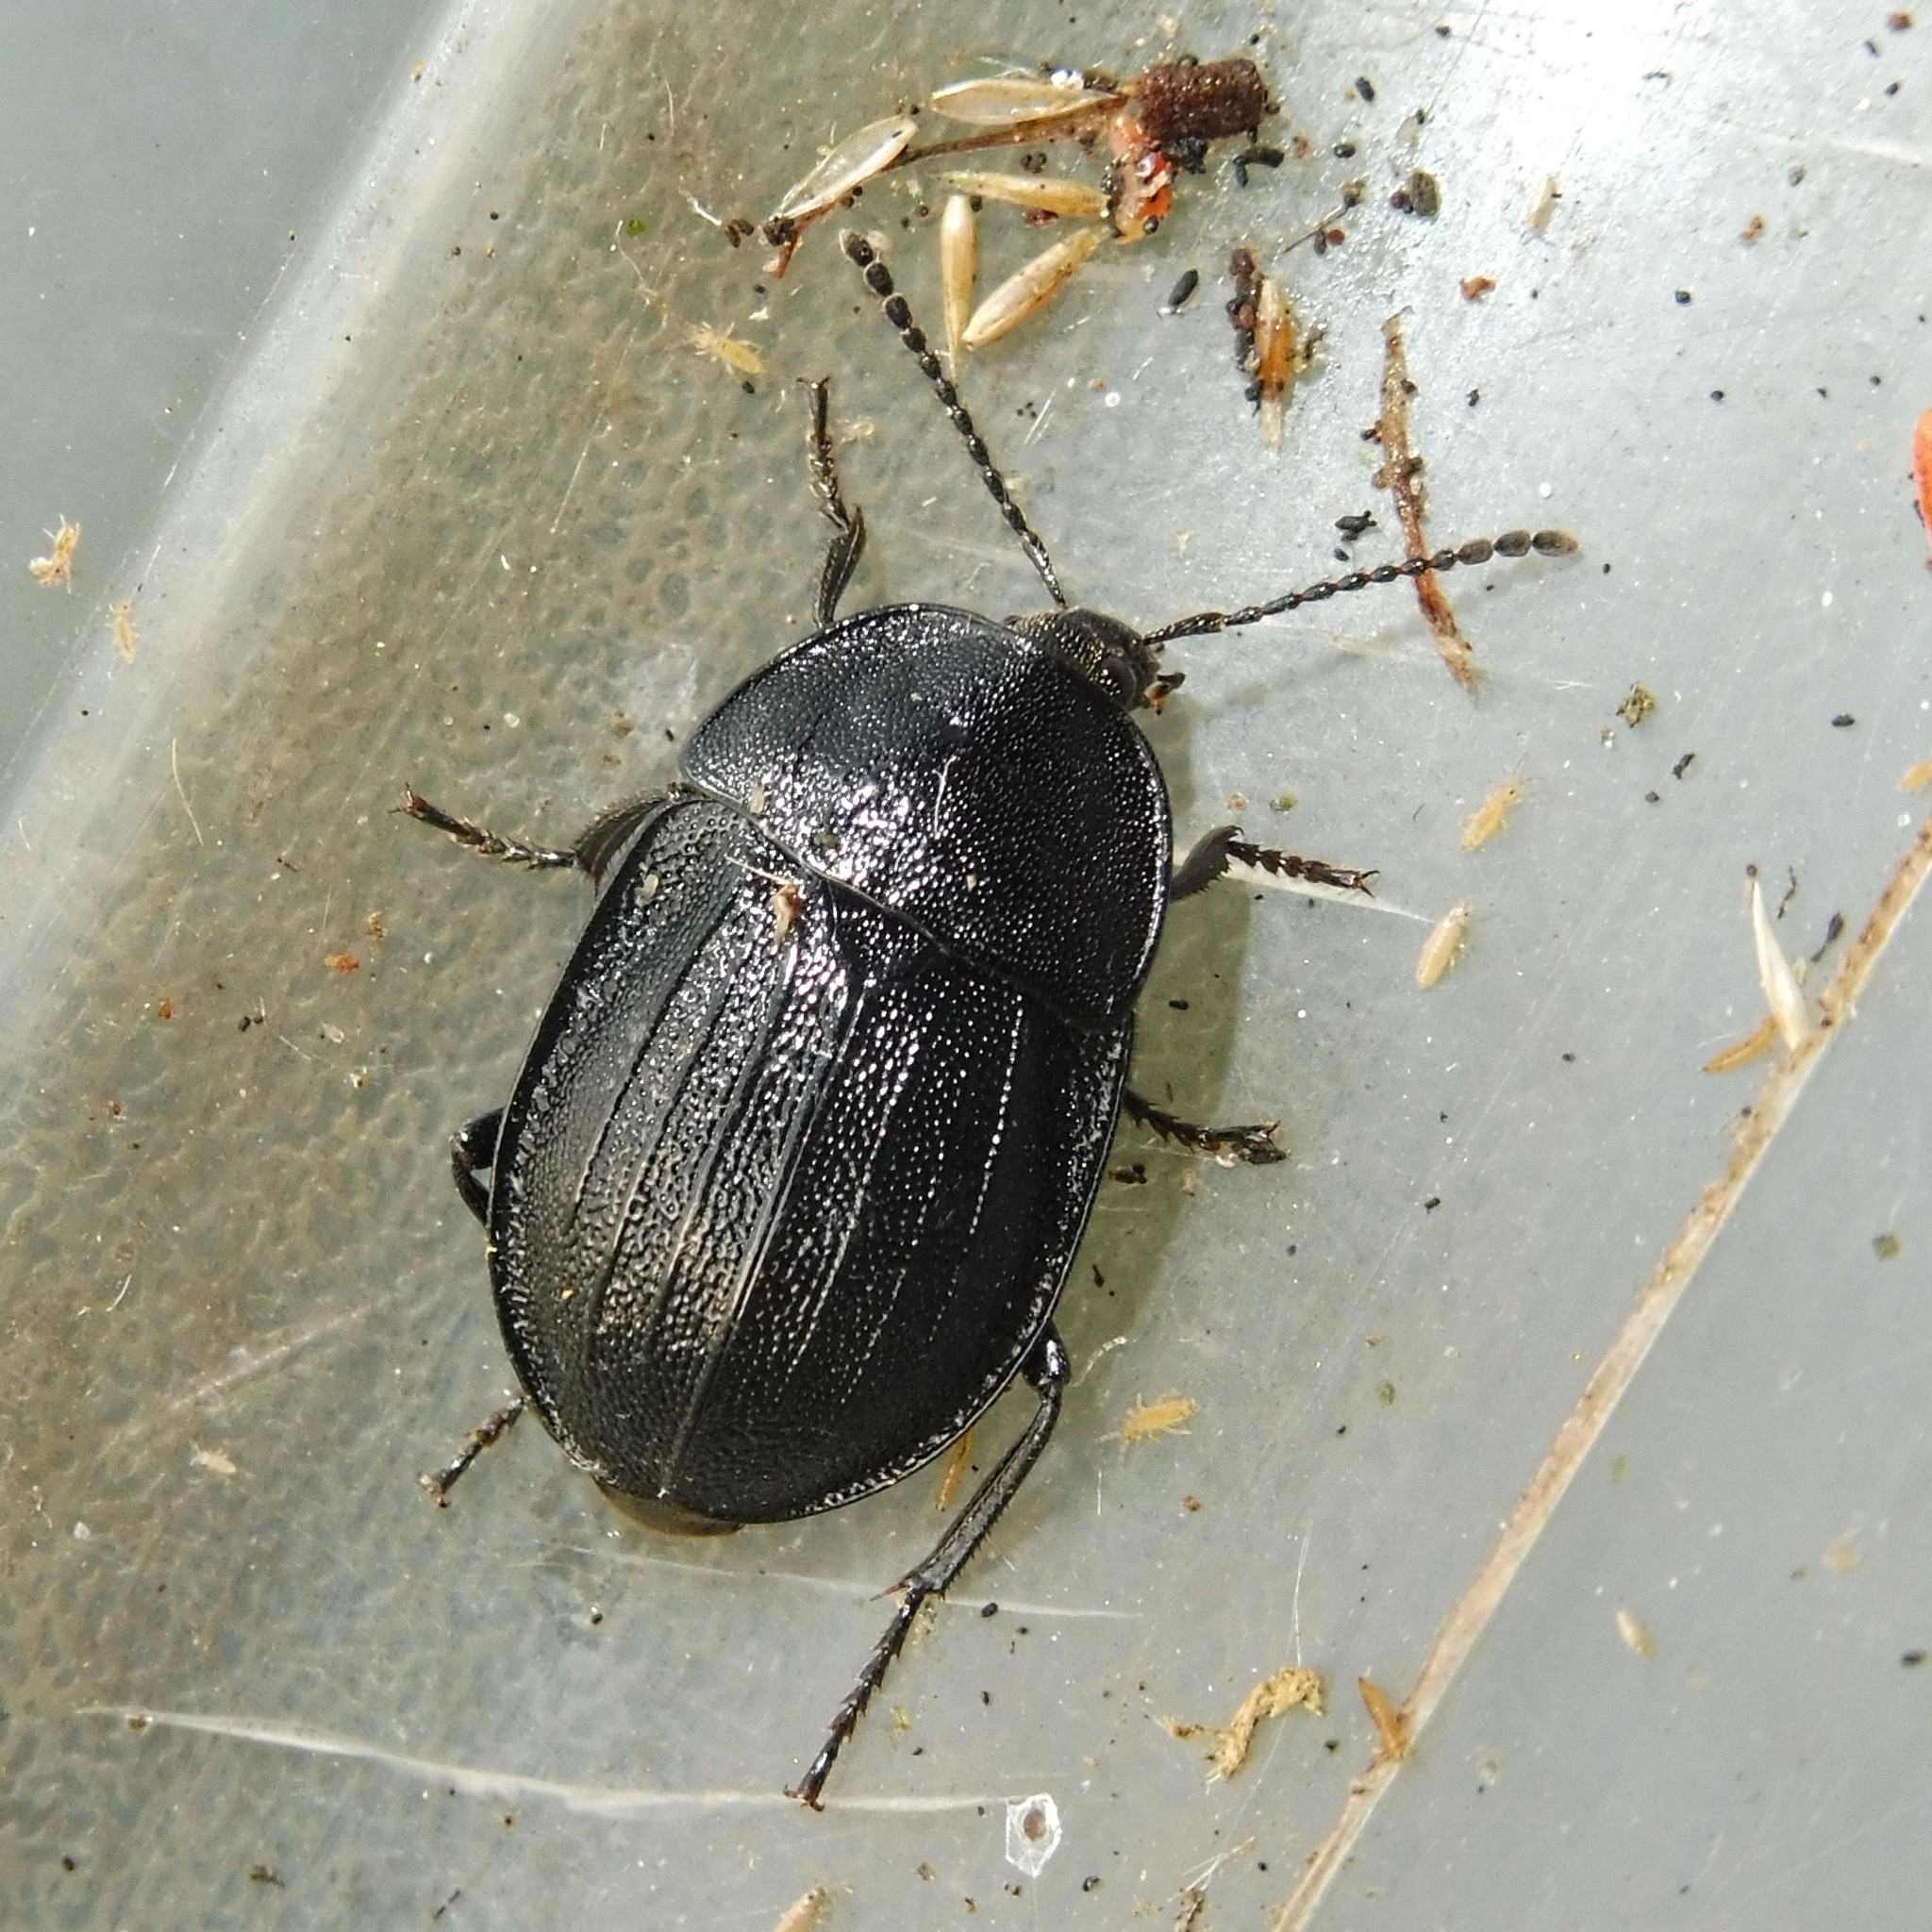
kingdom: Animalia
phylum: Arthropoda
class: Insecta
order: Coleoptera
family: Staphylinidae
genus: Silpha
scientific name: Silpha atrata
